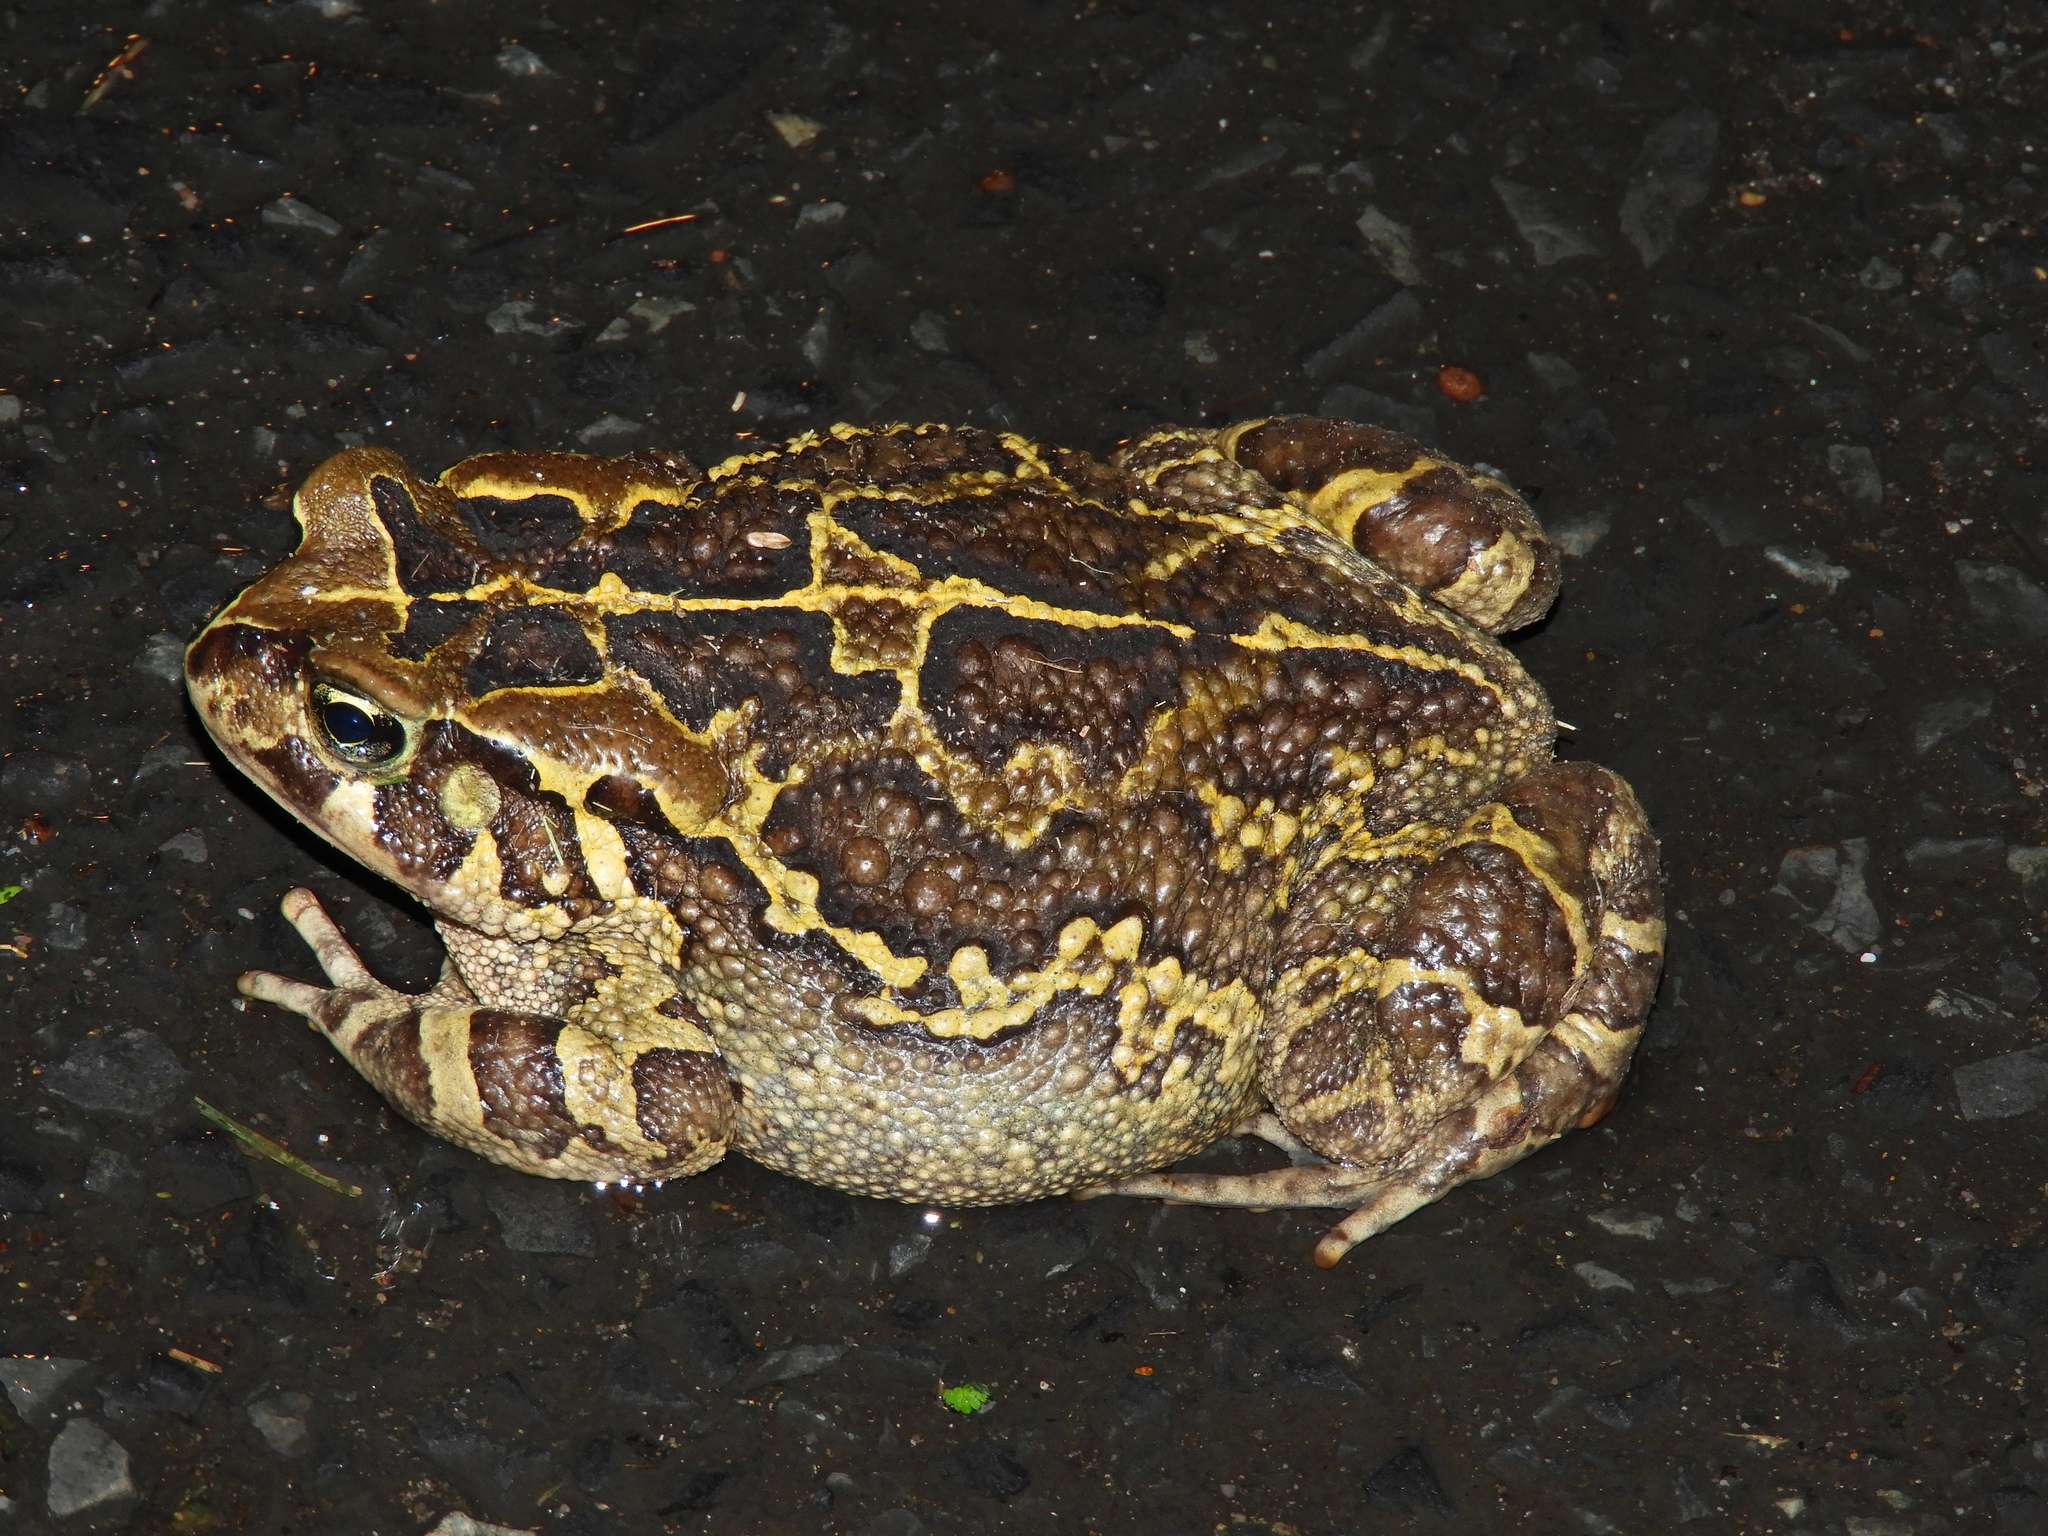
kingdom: Animalia
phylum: Chordata
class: Amphibia
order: Anura
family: Bufonidae
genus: Sclerophrys
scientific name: Sclerophrys pantherina
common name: Panther toad
